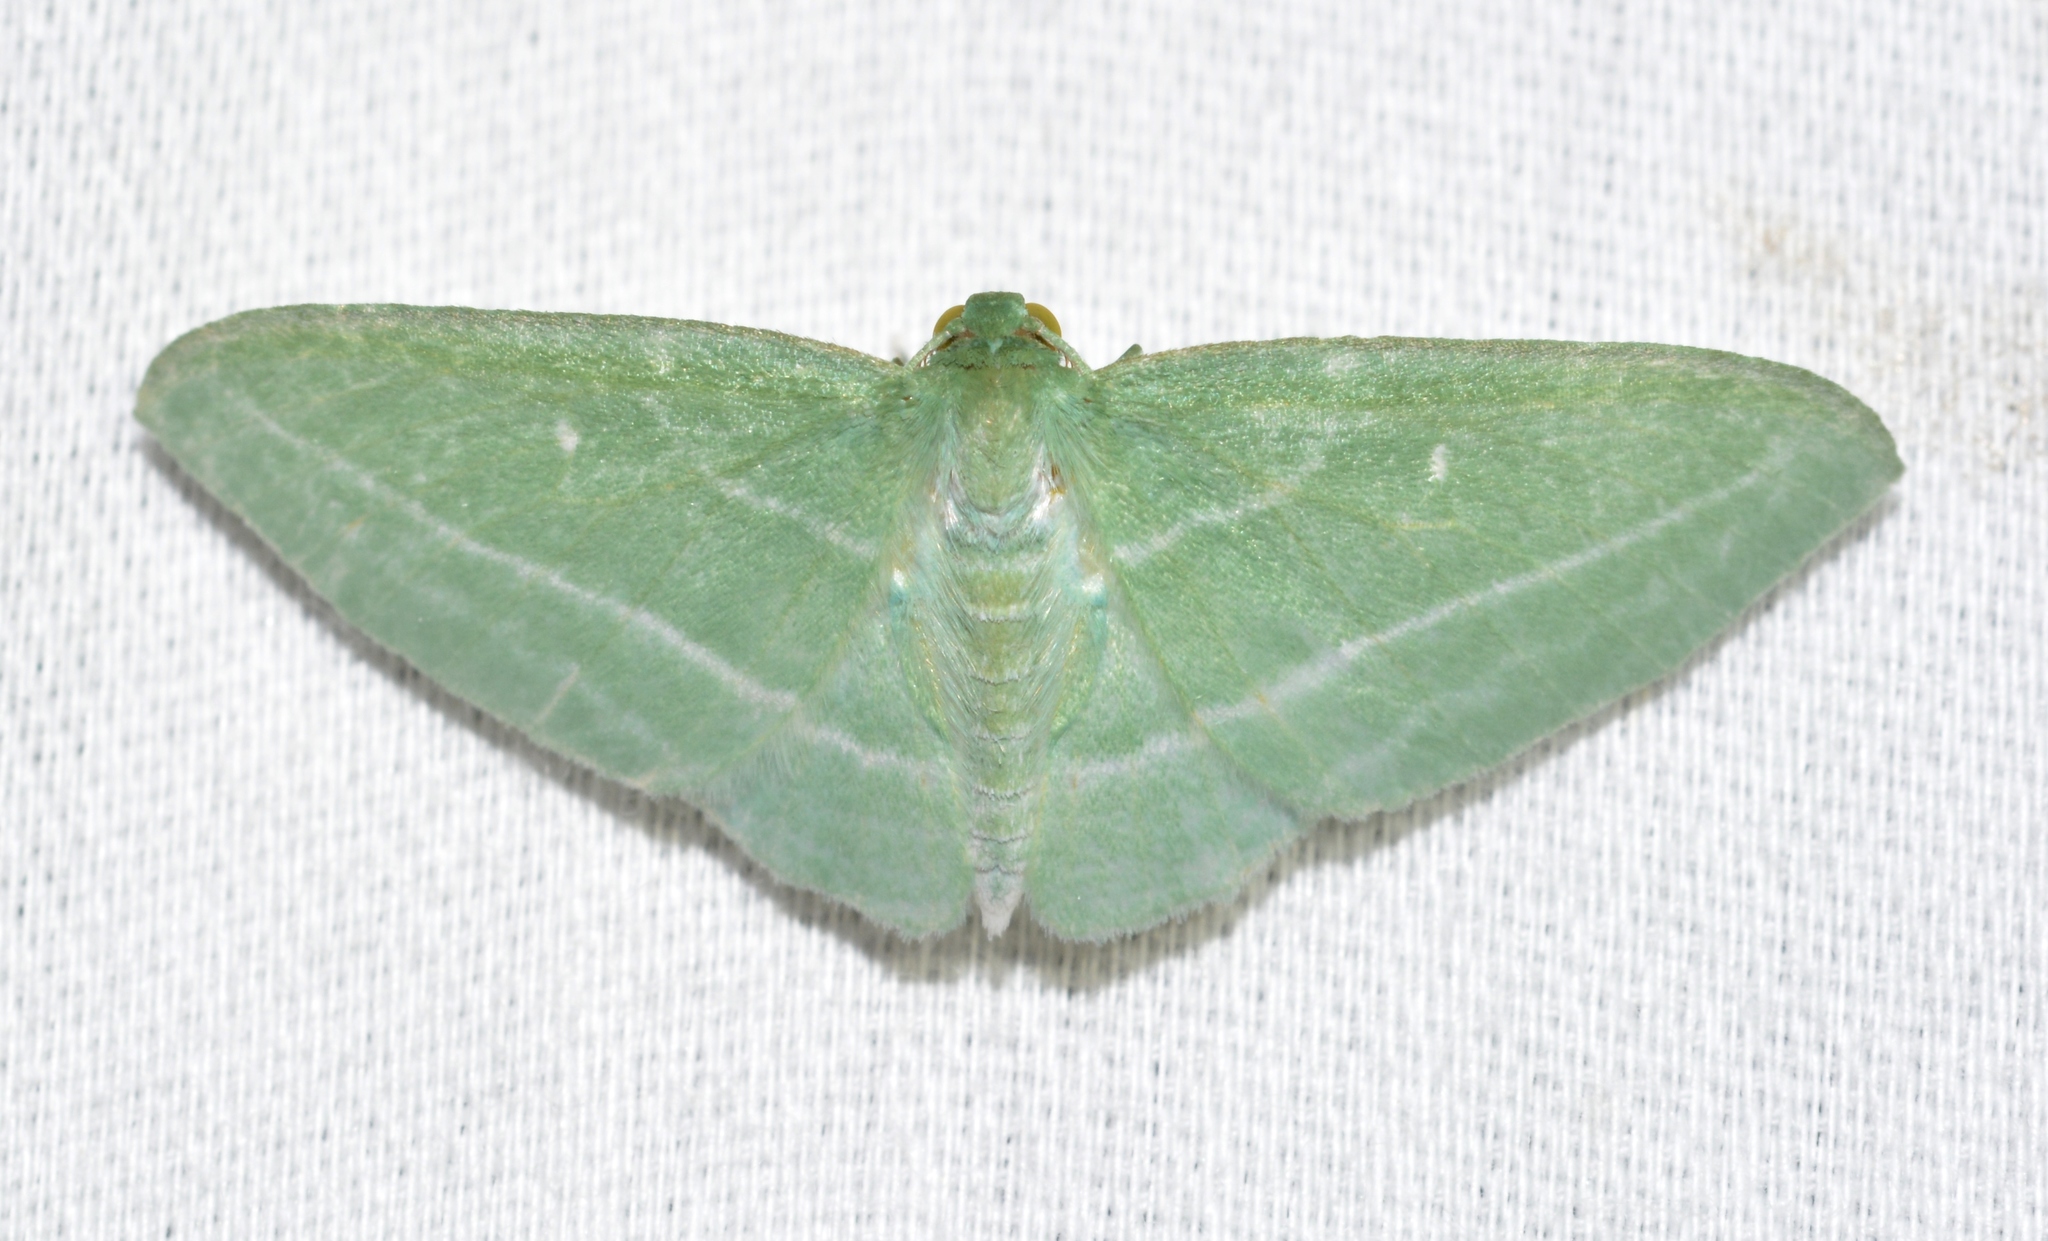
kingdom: Animalia
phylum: Arthropoda
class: Insecta
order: Lepidoptera
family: Geometridae
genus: Dyspteris
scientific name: Dyspteris abortivaria
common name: Bad-wing
